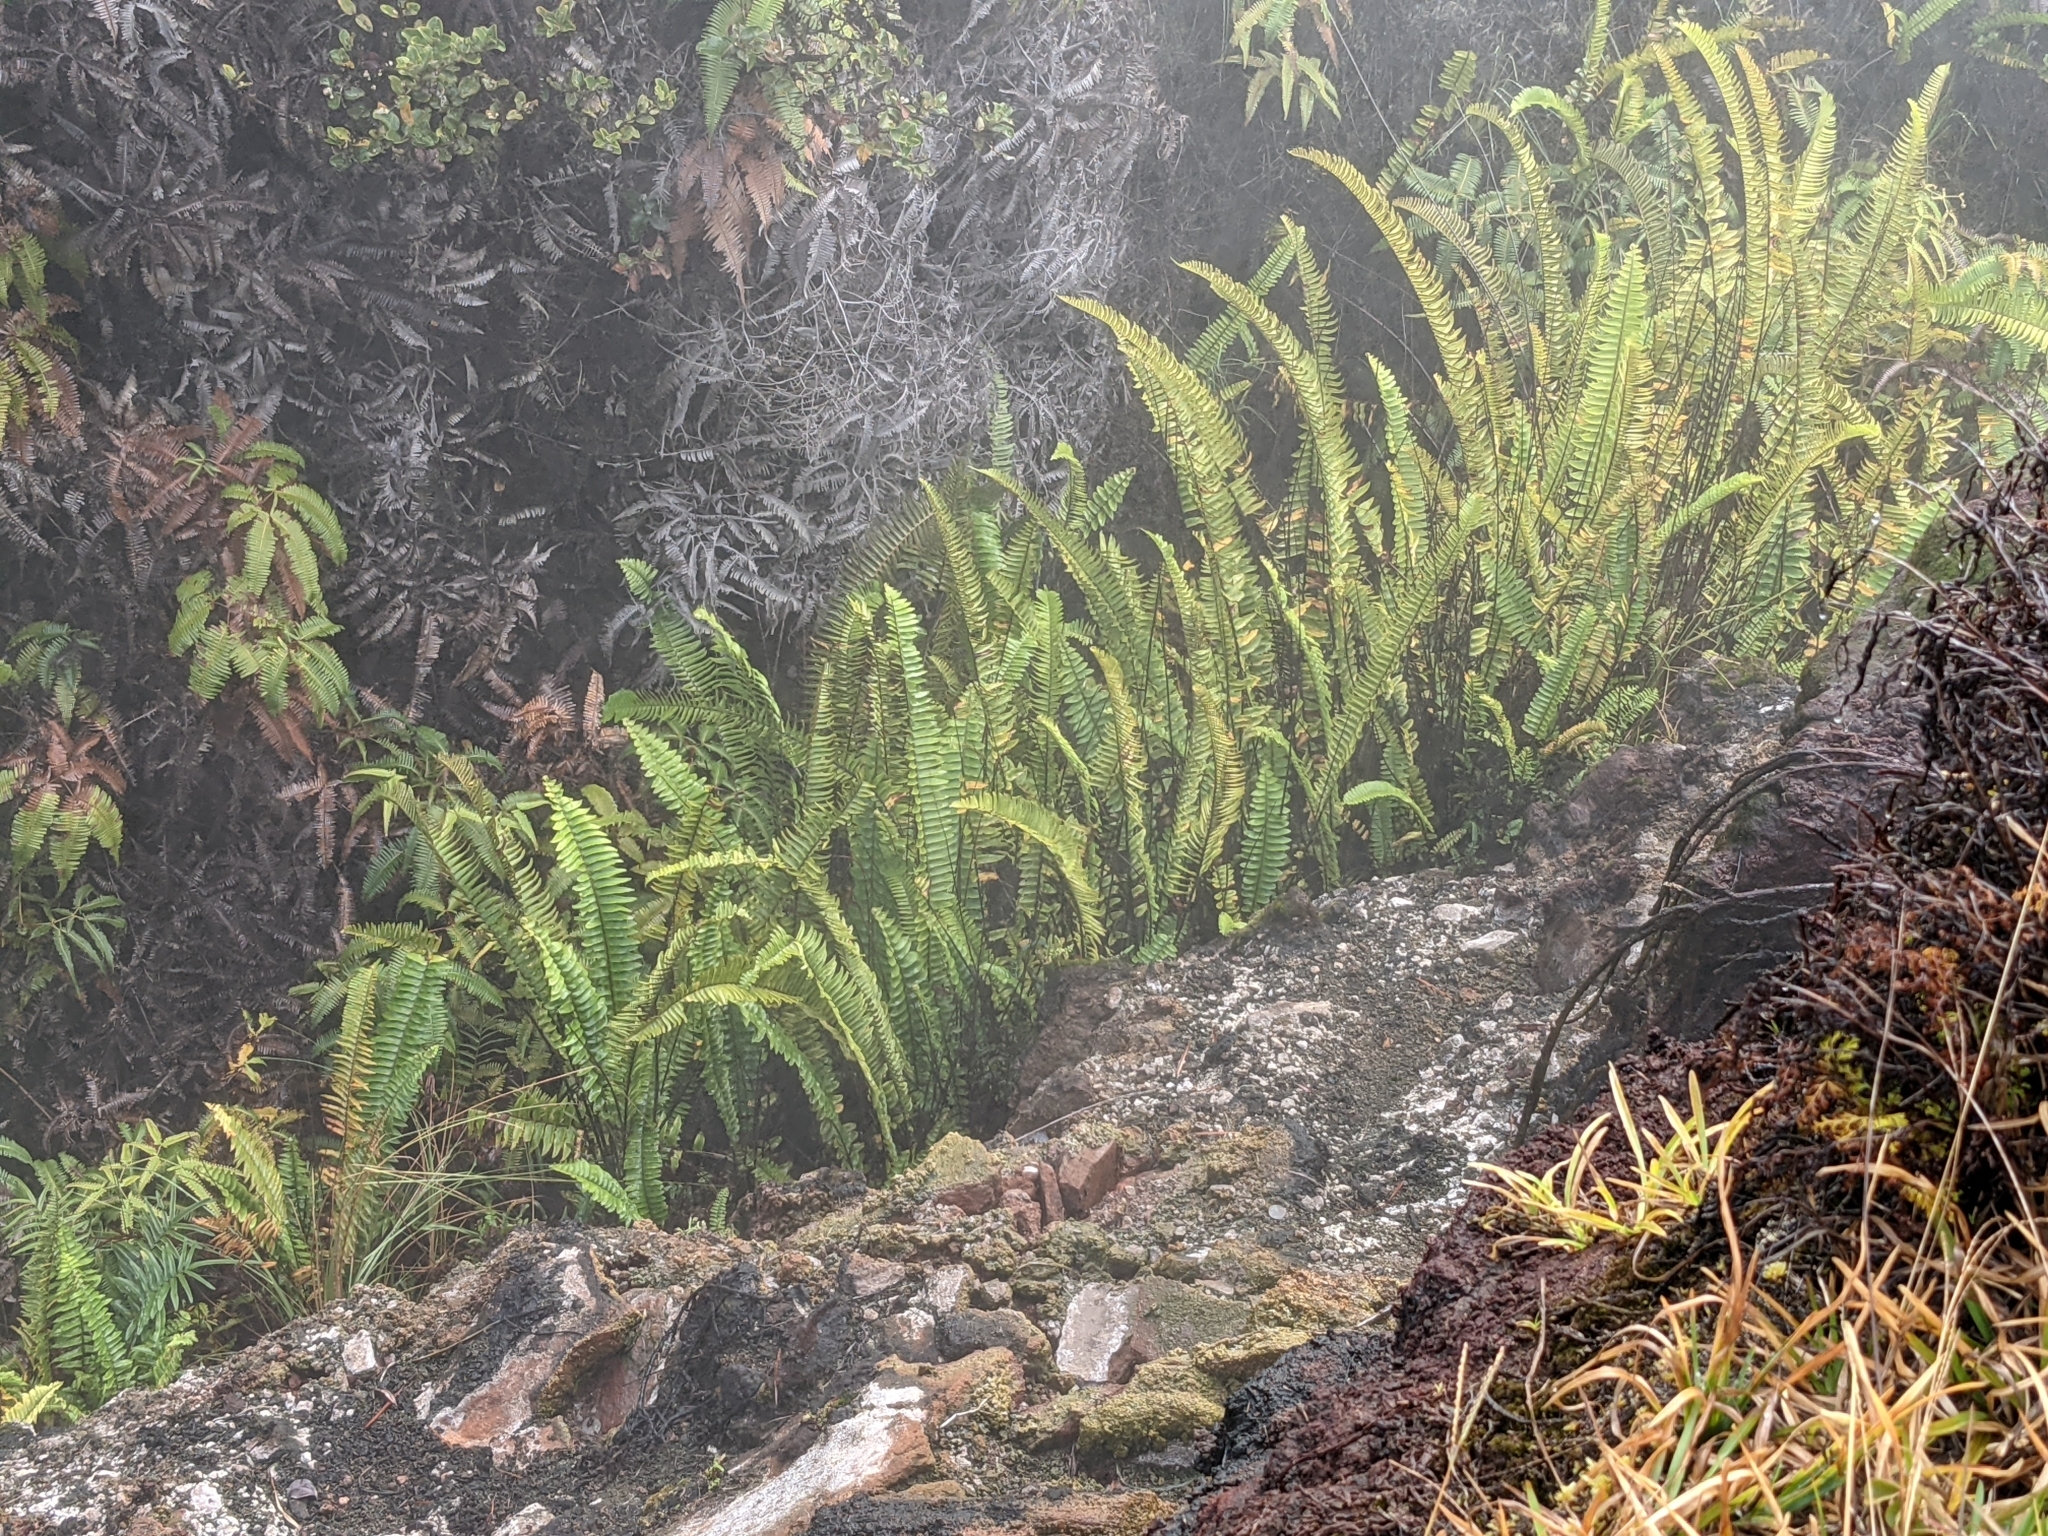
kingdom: Plantae
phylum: Tracheophyta
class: Polypodiopsida
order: Polypodiales
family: Nephrolepidaceae
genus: Nephrolepis
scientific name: Nephrolepis cordifolia
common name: Narrow swordfern
